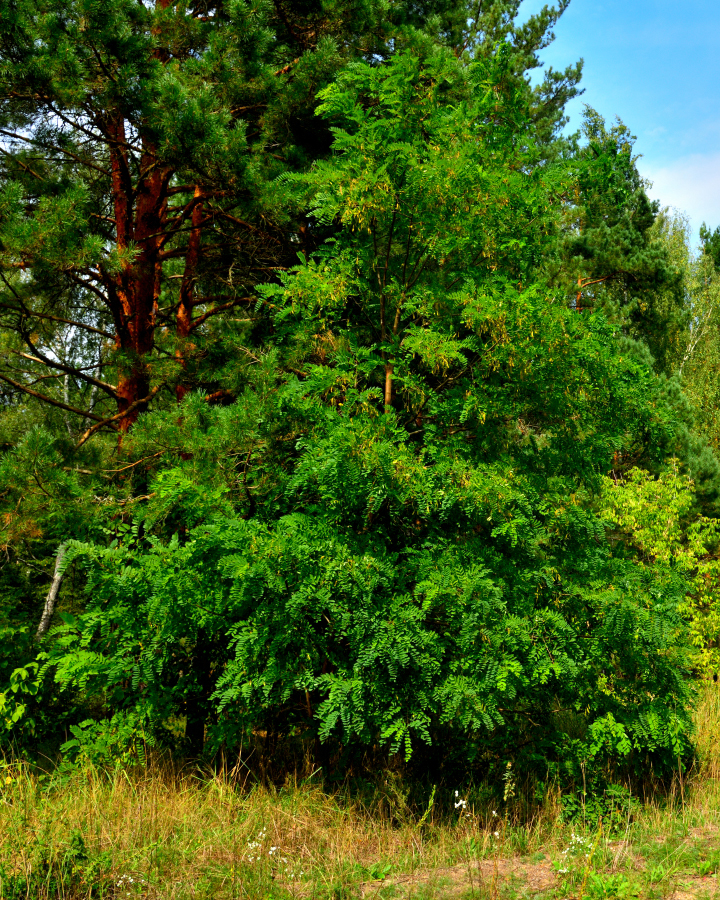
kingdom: Plantae
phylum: Tracheophyta
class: Magnoliopsida
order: Fabales
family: Fabaceae
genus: Robinia
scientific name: Robinia pseudoacacia
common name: Black locust
